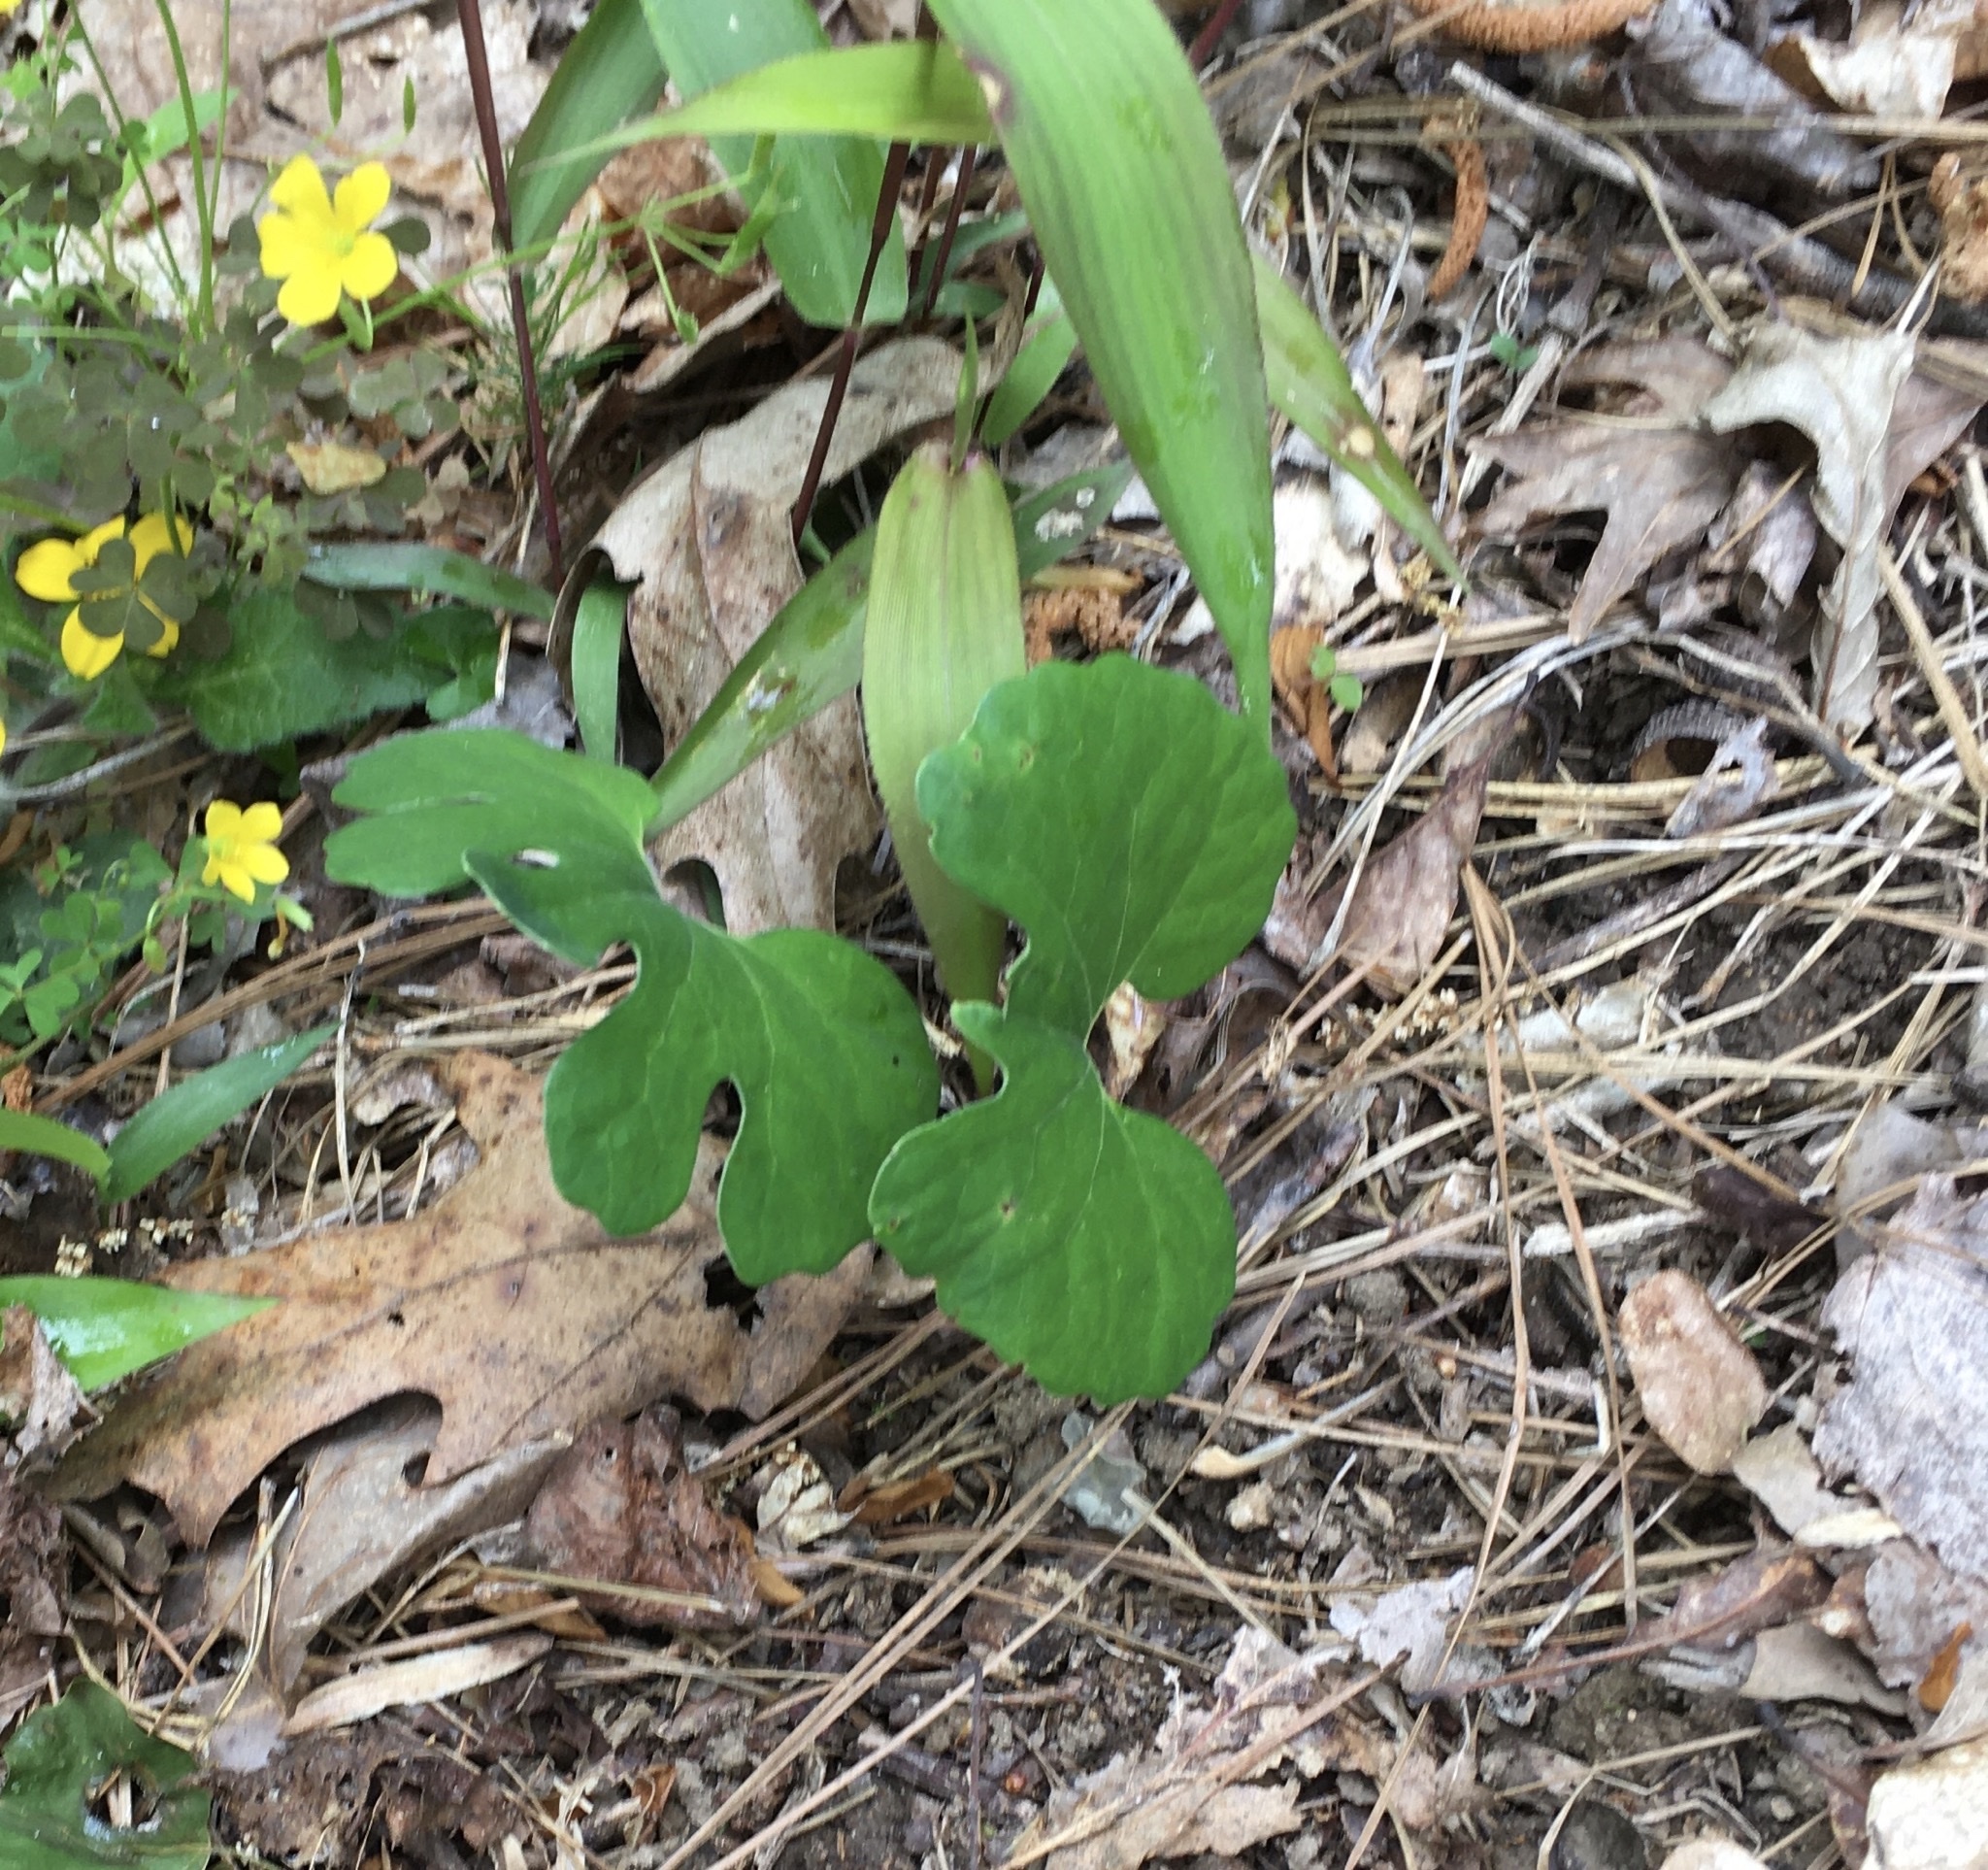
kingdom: Plantae
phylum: Tracheophyta
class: Magnoliopsida
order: Ranunculales
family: Papaveraceae
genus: Sanguinaria
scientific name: Sanguinaria canadensis
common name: Bloodroot
